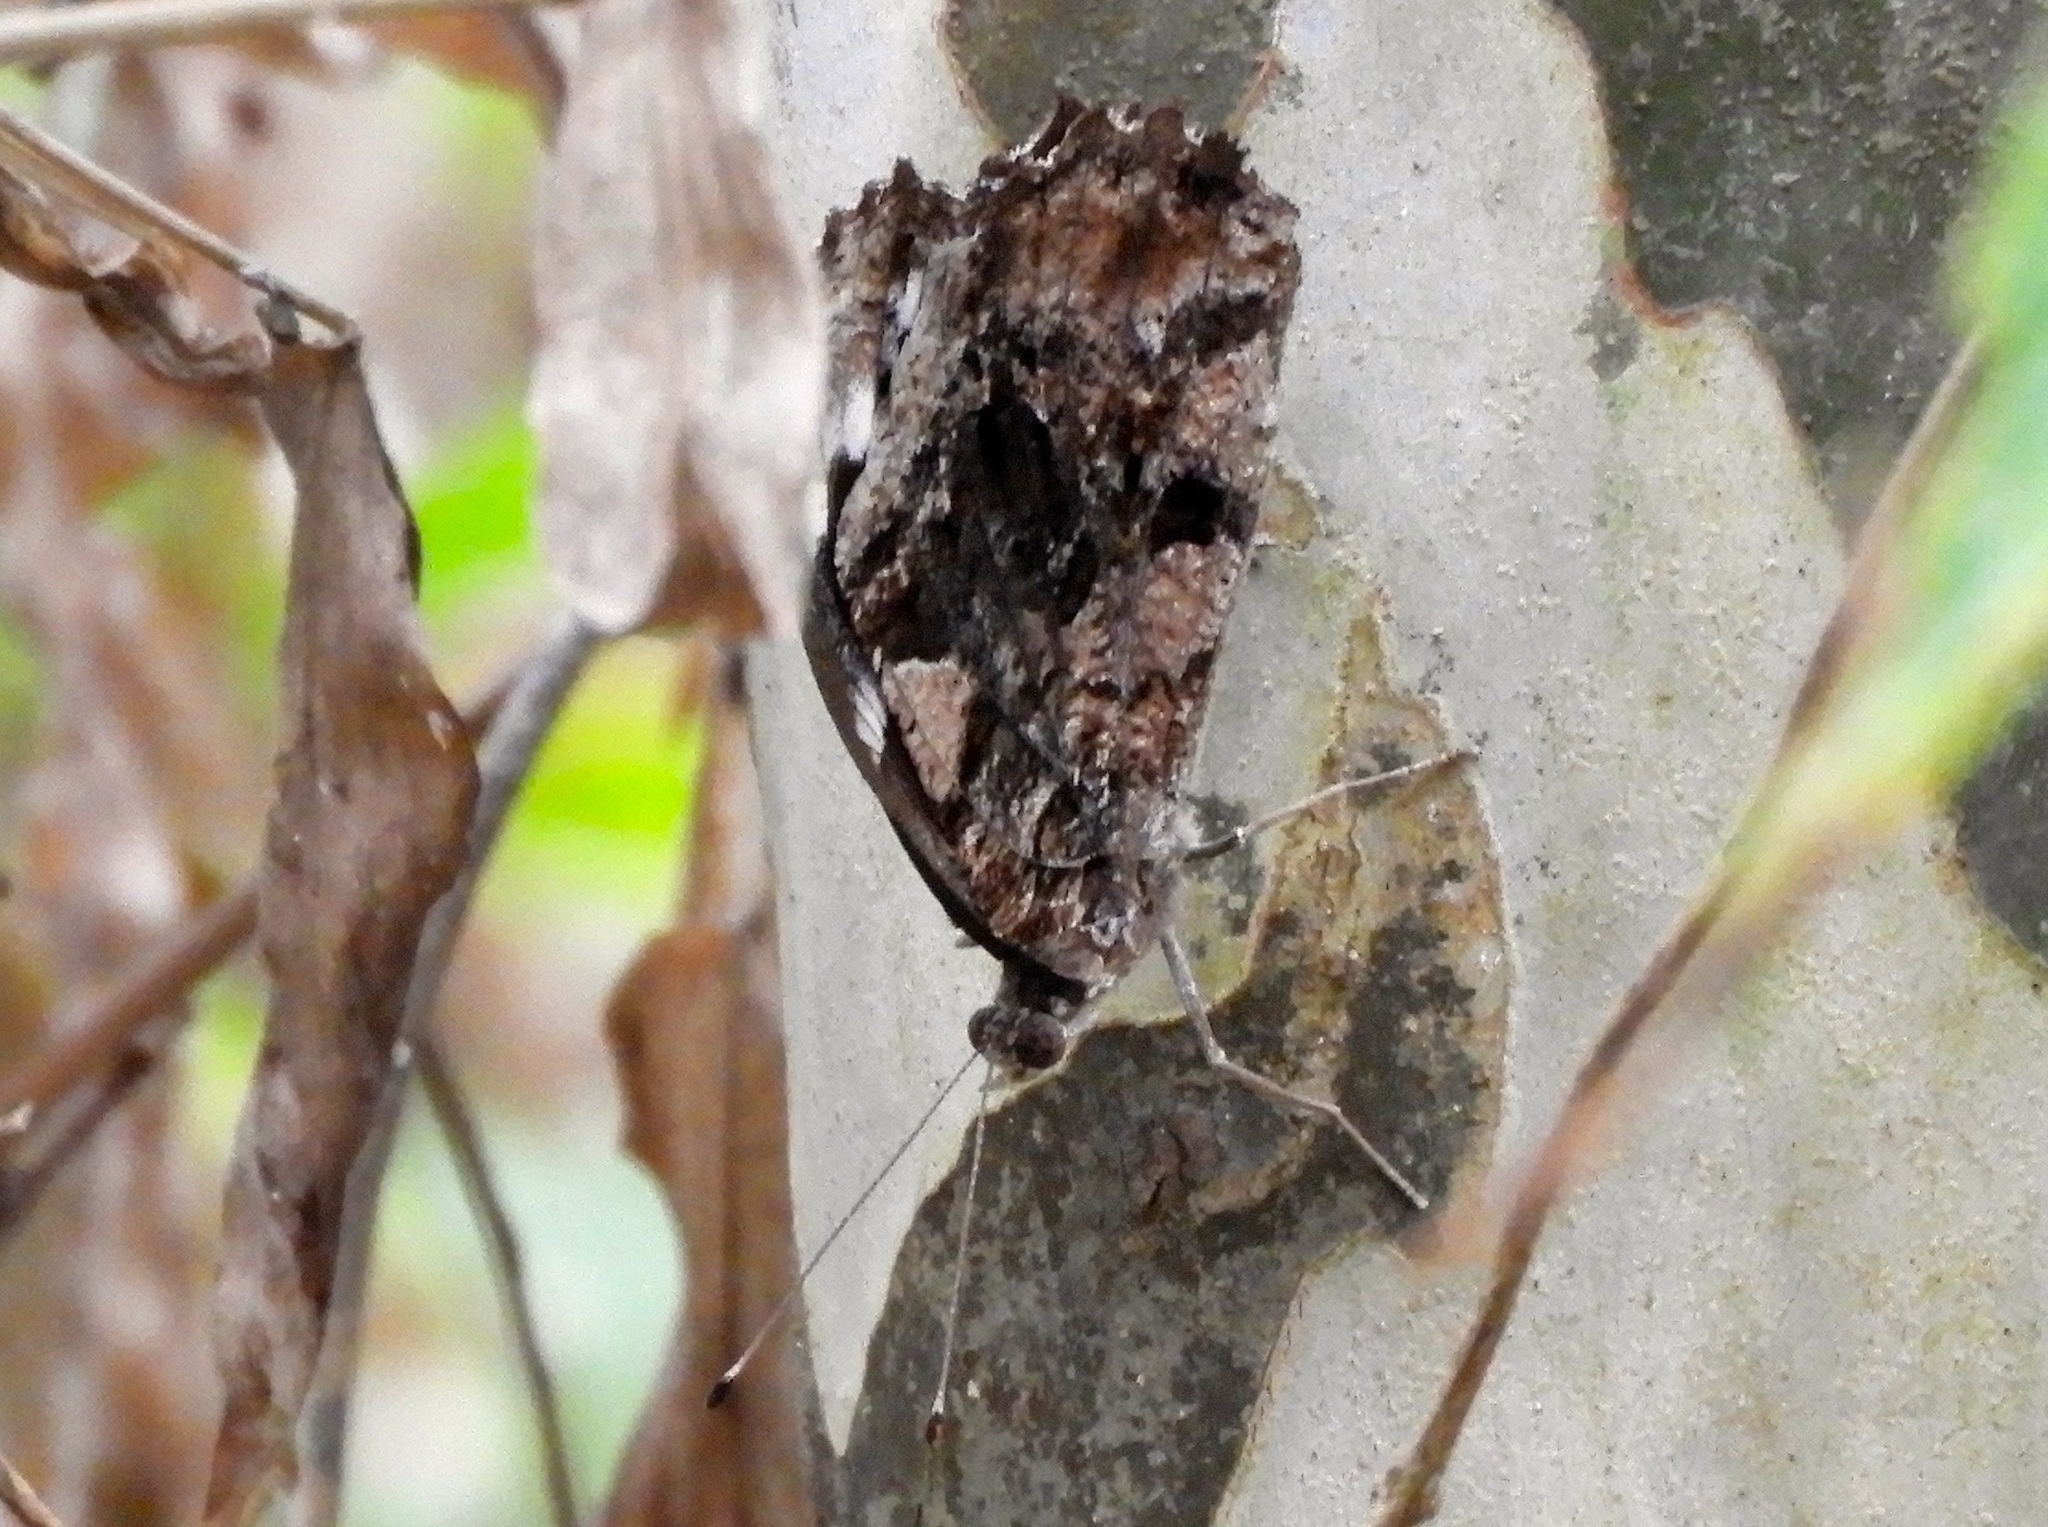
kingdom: Animalia
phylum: Arthropoda
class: Insecta
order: Lepidoptera
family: Nymphalidae
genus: Myscelia
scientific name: Myscelia ethusa
